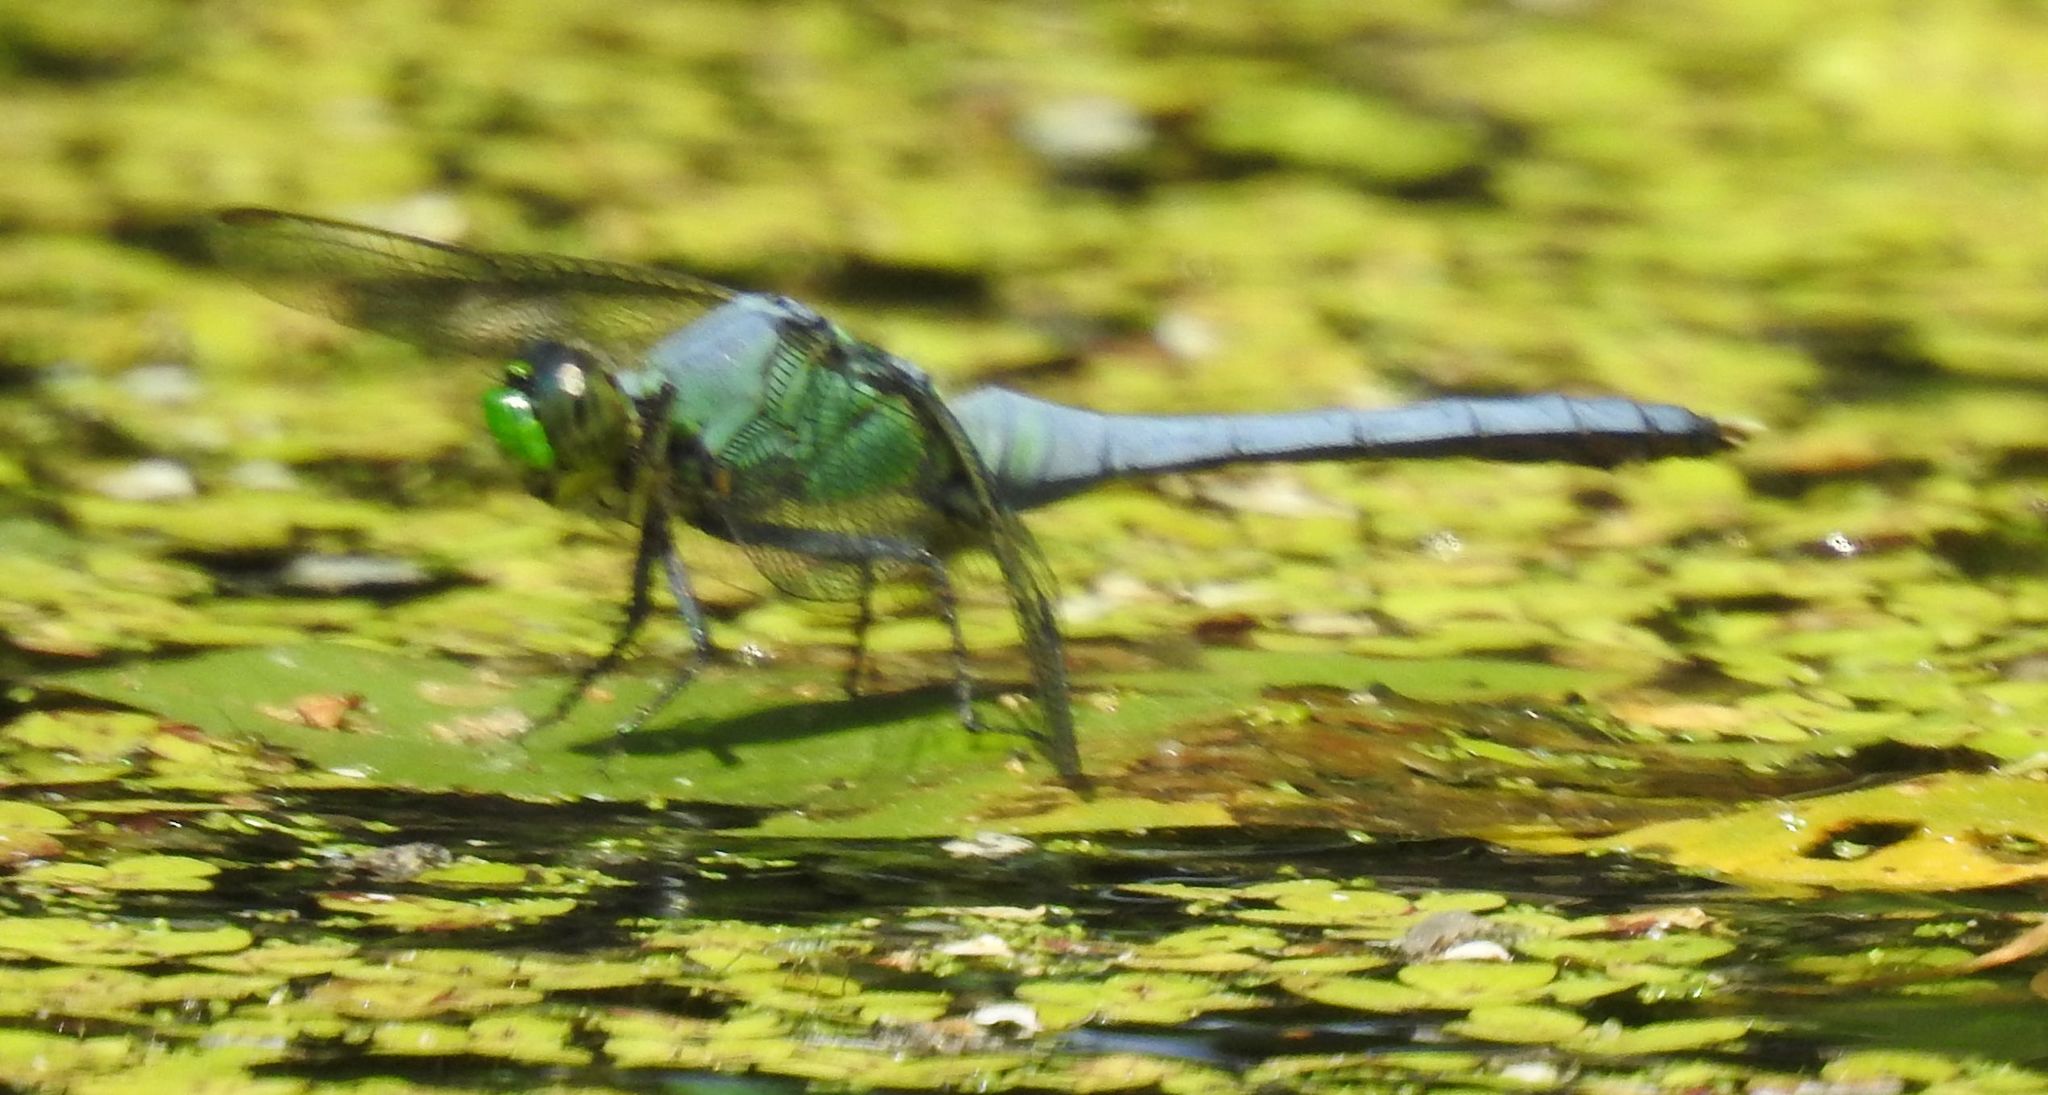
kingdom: Animalia
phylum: Arthropoda
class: Insecta
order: Odonata
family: Libellulidae
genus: Erythemis
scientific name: Erythemis simplicicollis
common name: Eastern pondhawk
